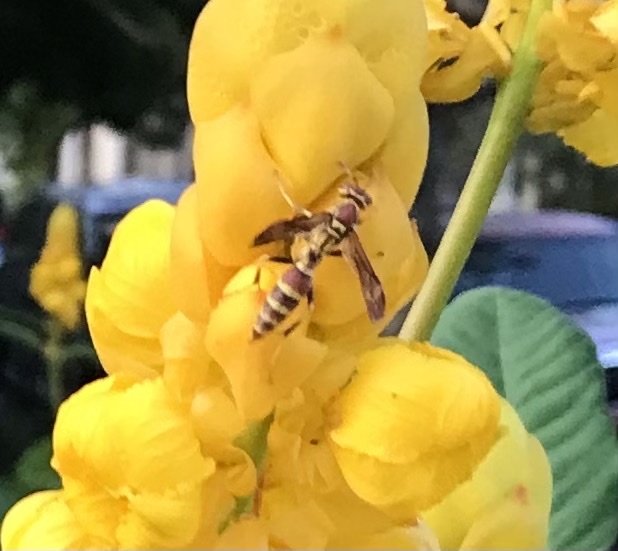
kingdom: Animalia
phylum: Arthropoda
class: Insecta
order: Hymenoptera
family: Eumenidae
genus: Polistes
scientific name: Polistes exclamans
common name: Paper wasp
